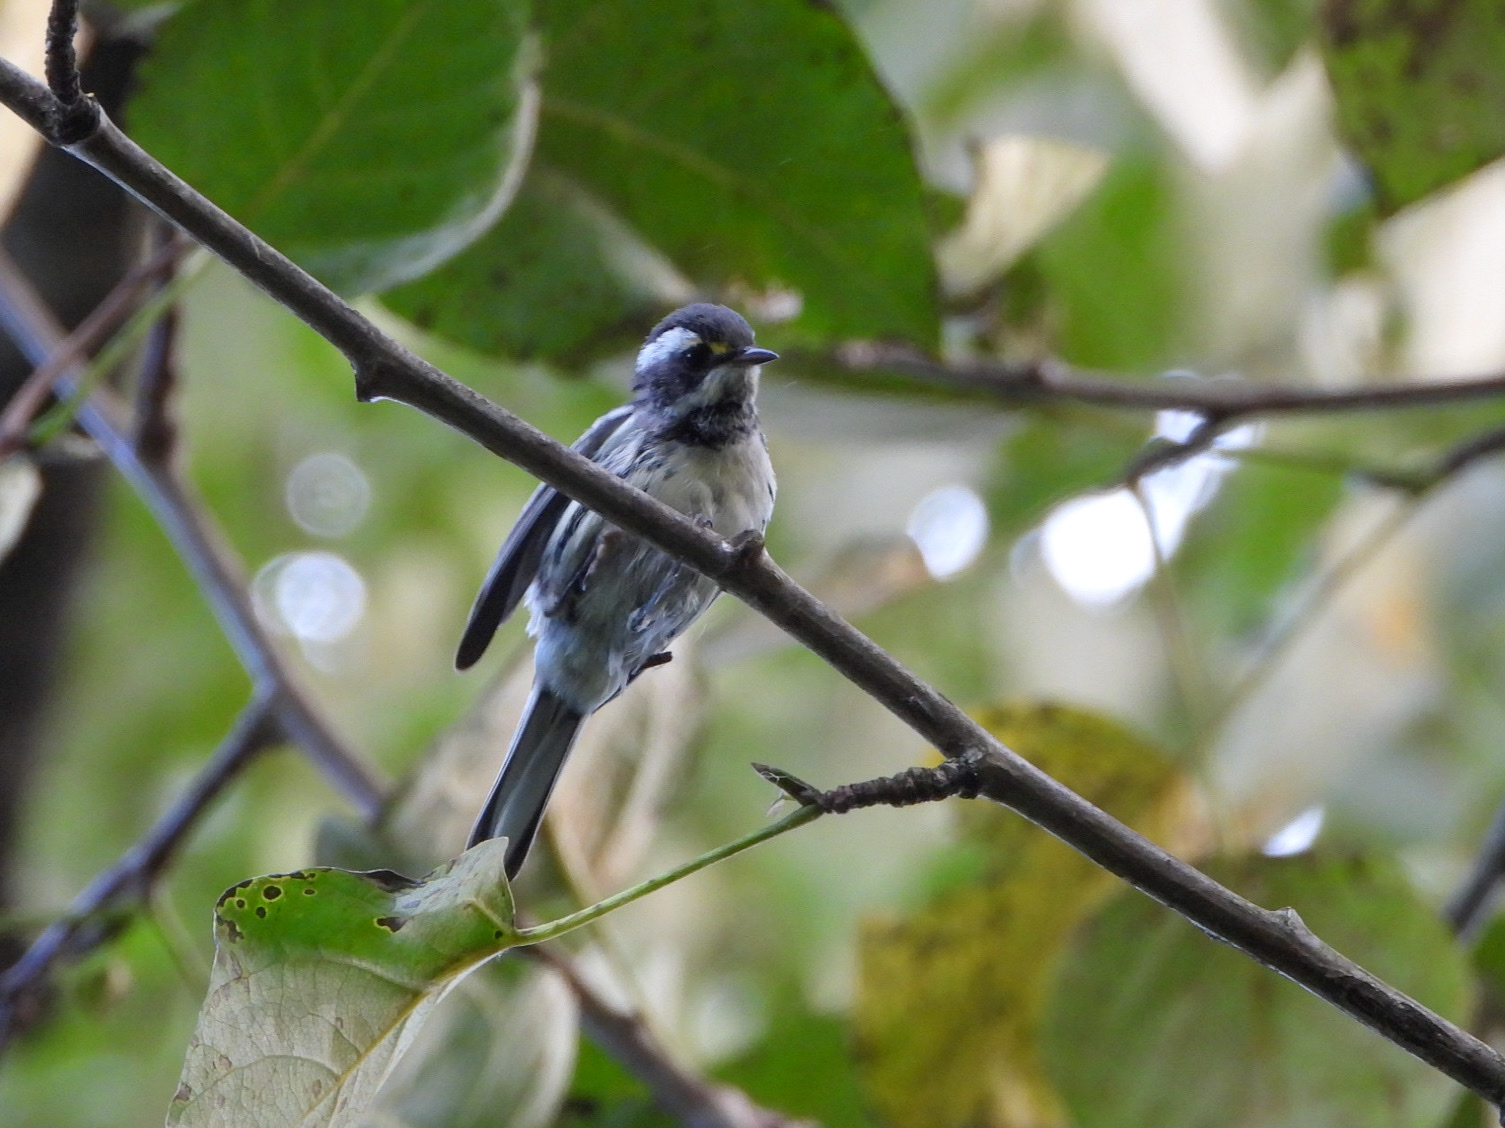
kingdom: Animalia
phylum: Chordata
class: Aves
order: Passeriformes
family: Parulidae
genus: Setophaga
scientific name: Setophaga nigrescens
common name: Black-throated gray warbler
